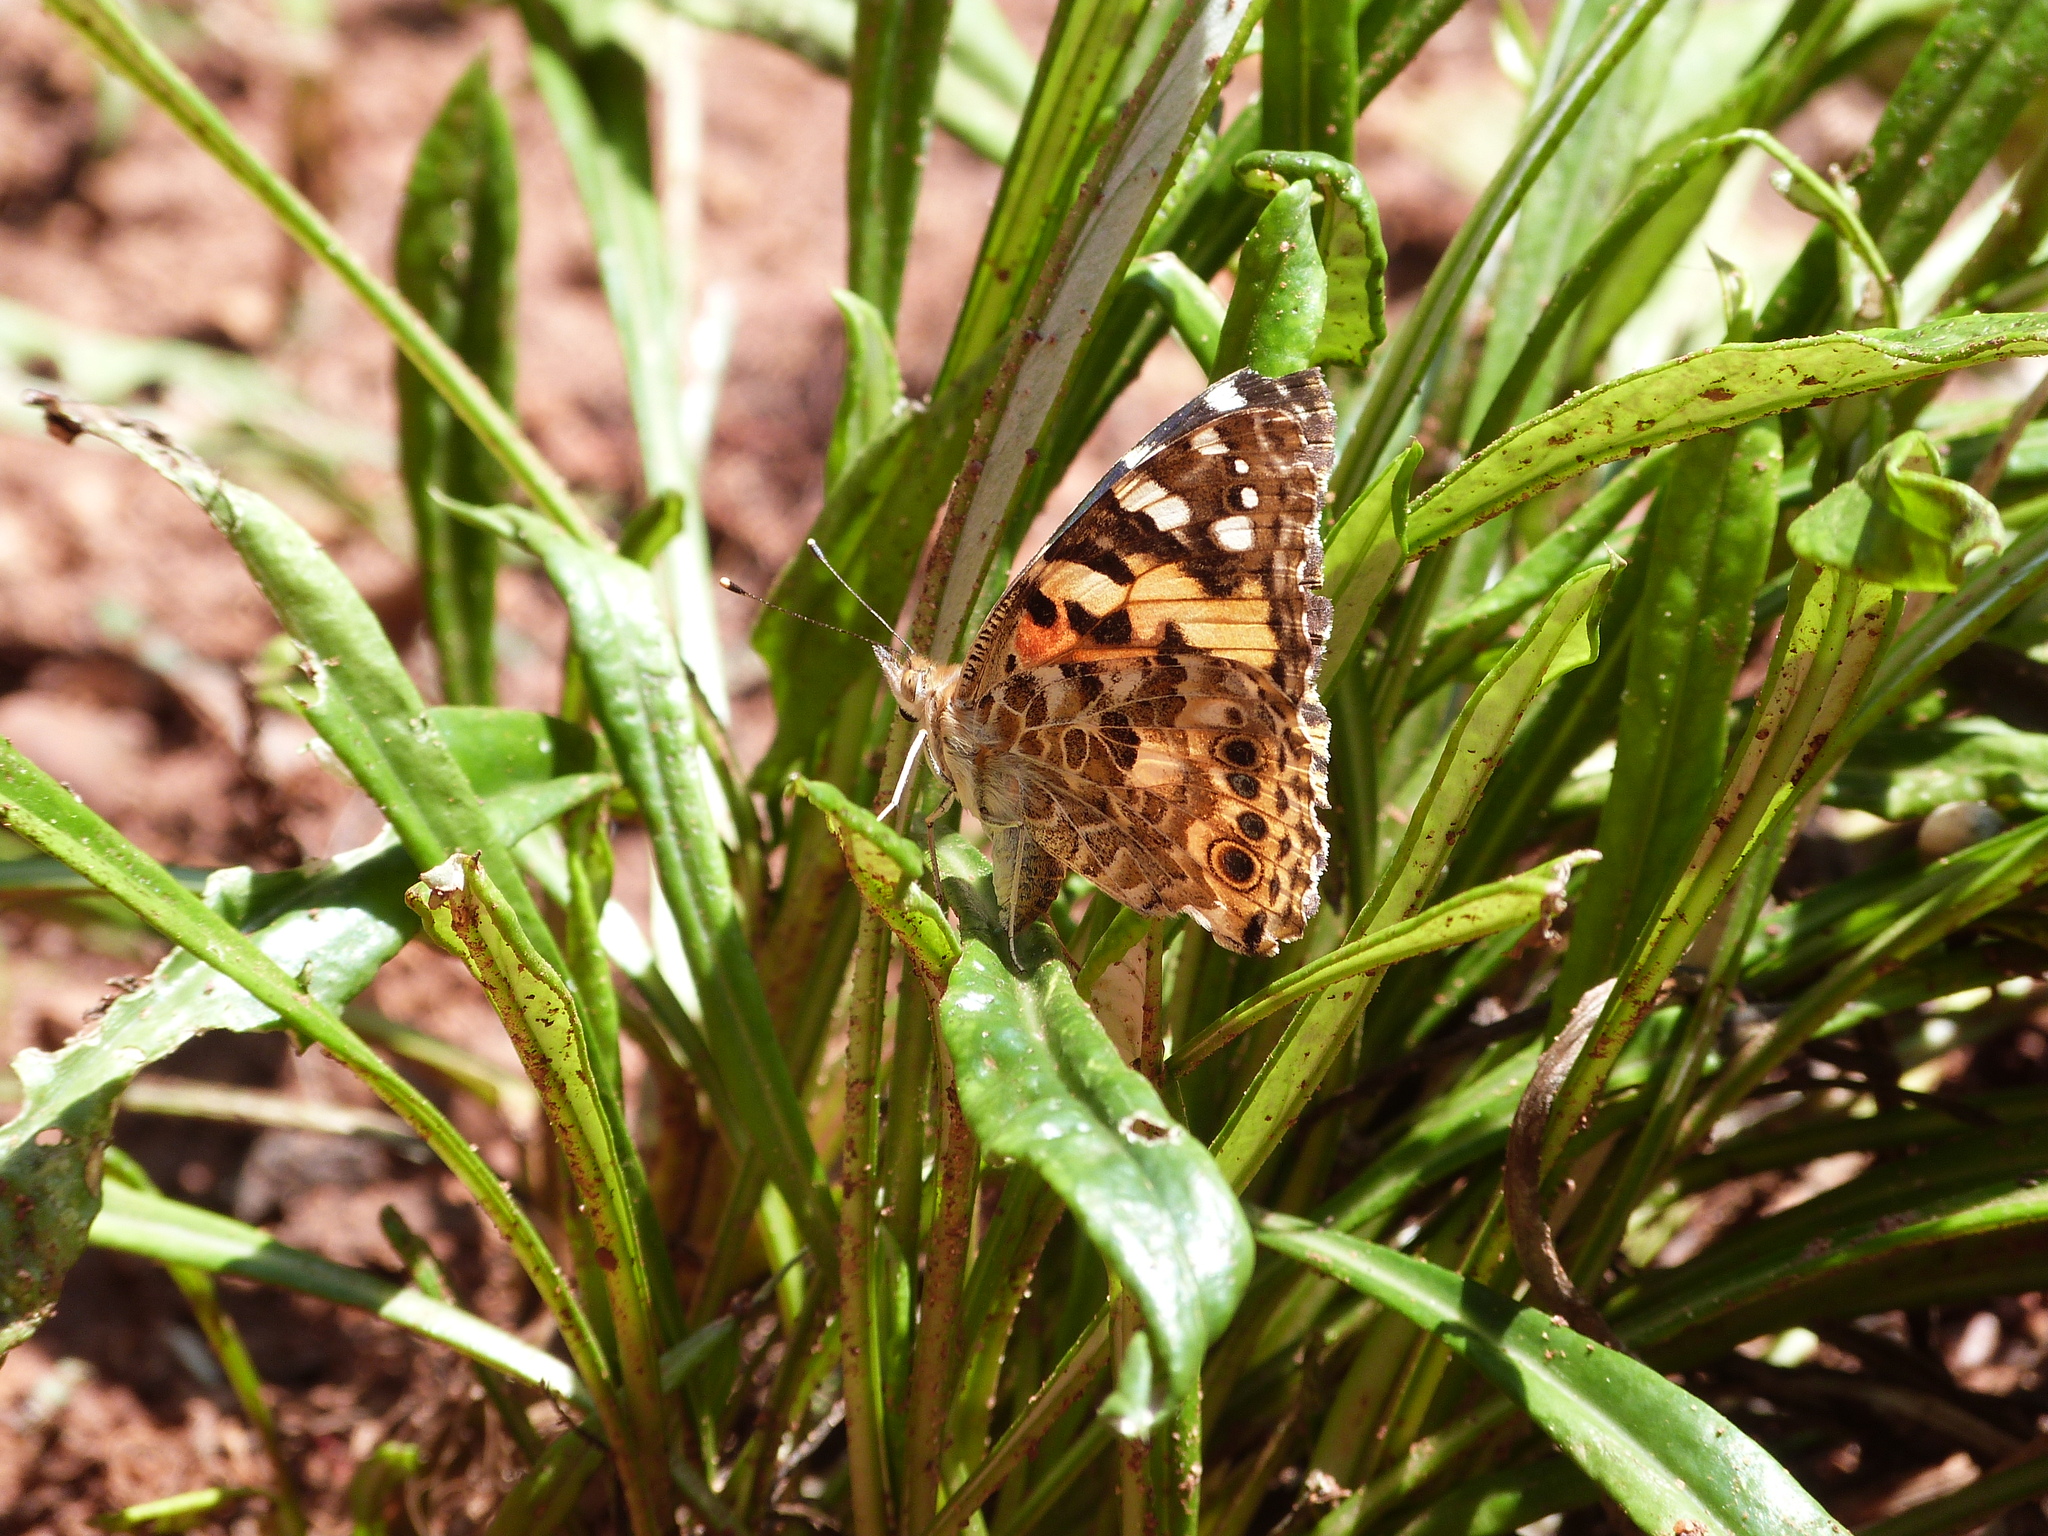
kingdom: Animalia
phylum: Arthropoda
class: Insecta
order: Lepidoptera
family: Nymphalidae
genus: Vanessa
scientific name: Vanessa cardui
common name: Painted lady
